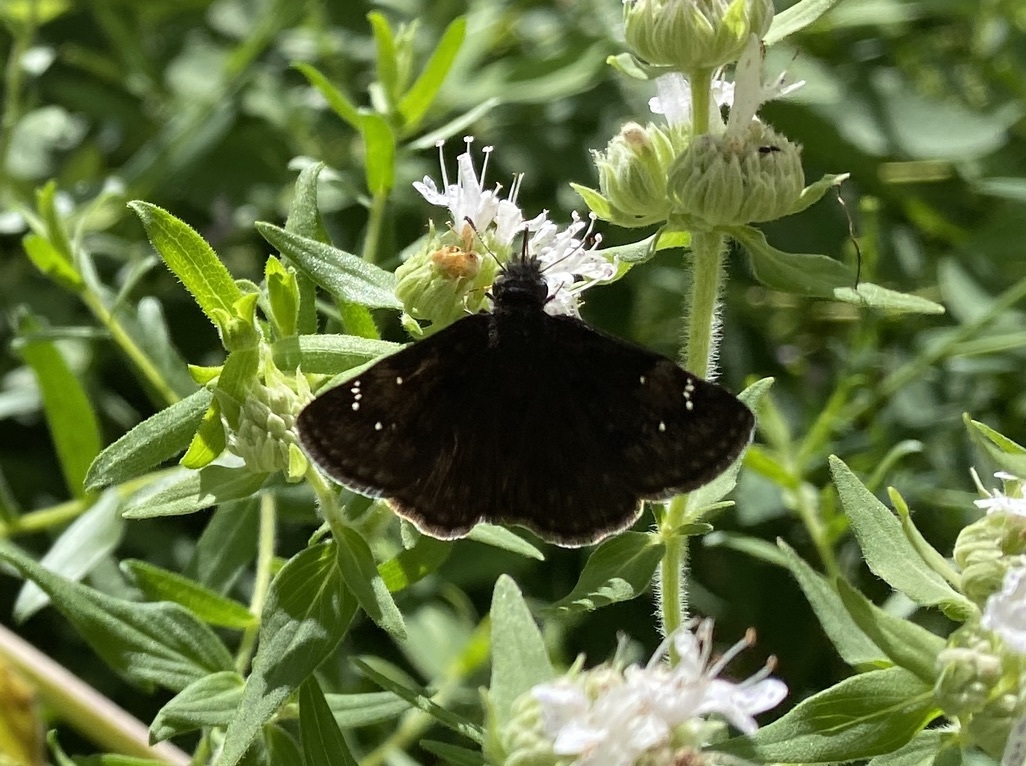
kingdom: Animalia
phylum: Arthropoda
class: Insecta
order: Lepidoptera
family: Hesperiidae
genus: Erynnis
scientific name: Erynnis baptisiae
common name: Wild indigo duskywing
